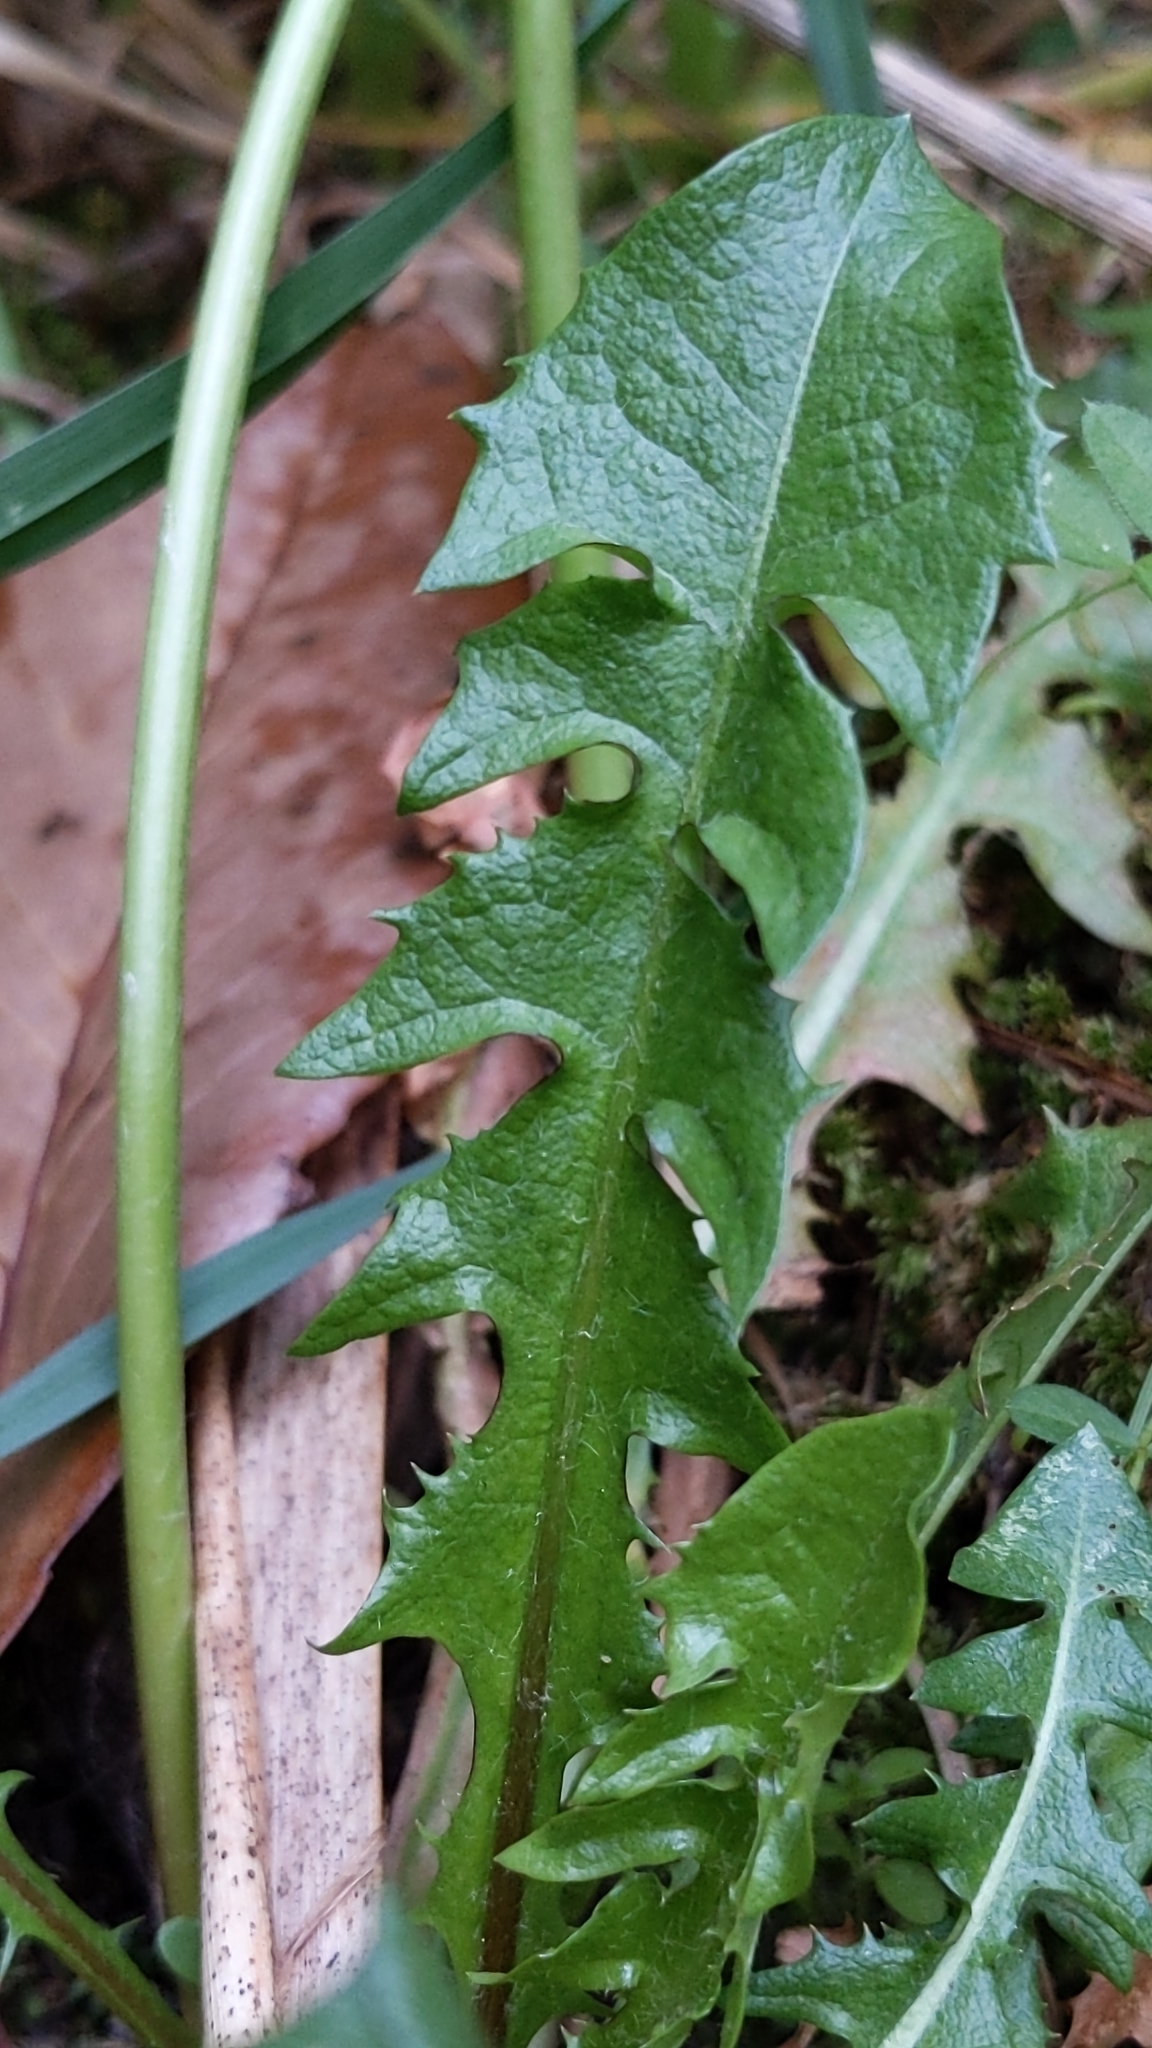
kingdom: Plantae
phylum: Tracheophyta
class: Magnoliopsida
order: Asterales
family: Asteraceae
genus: Taraxacum
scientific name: Taraxacum officinale
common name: Common dandelion
